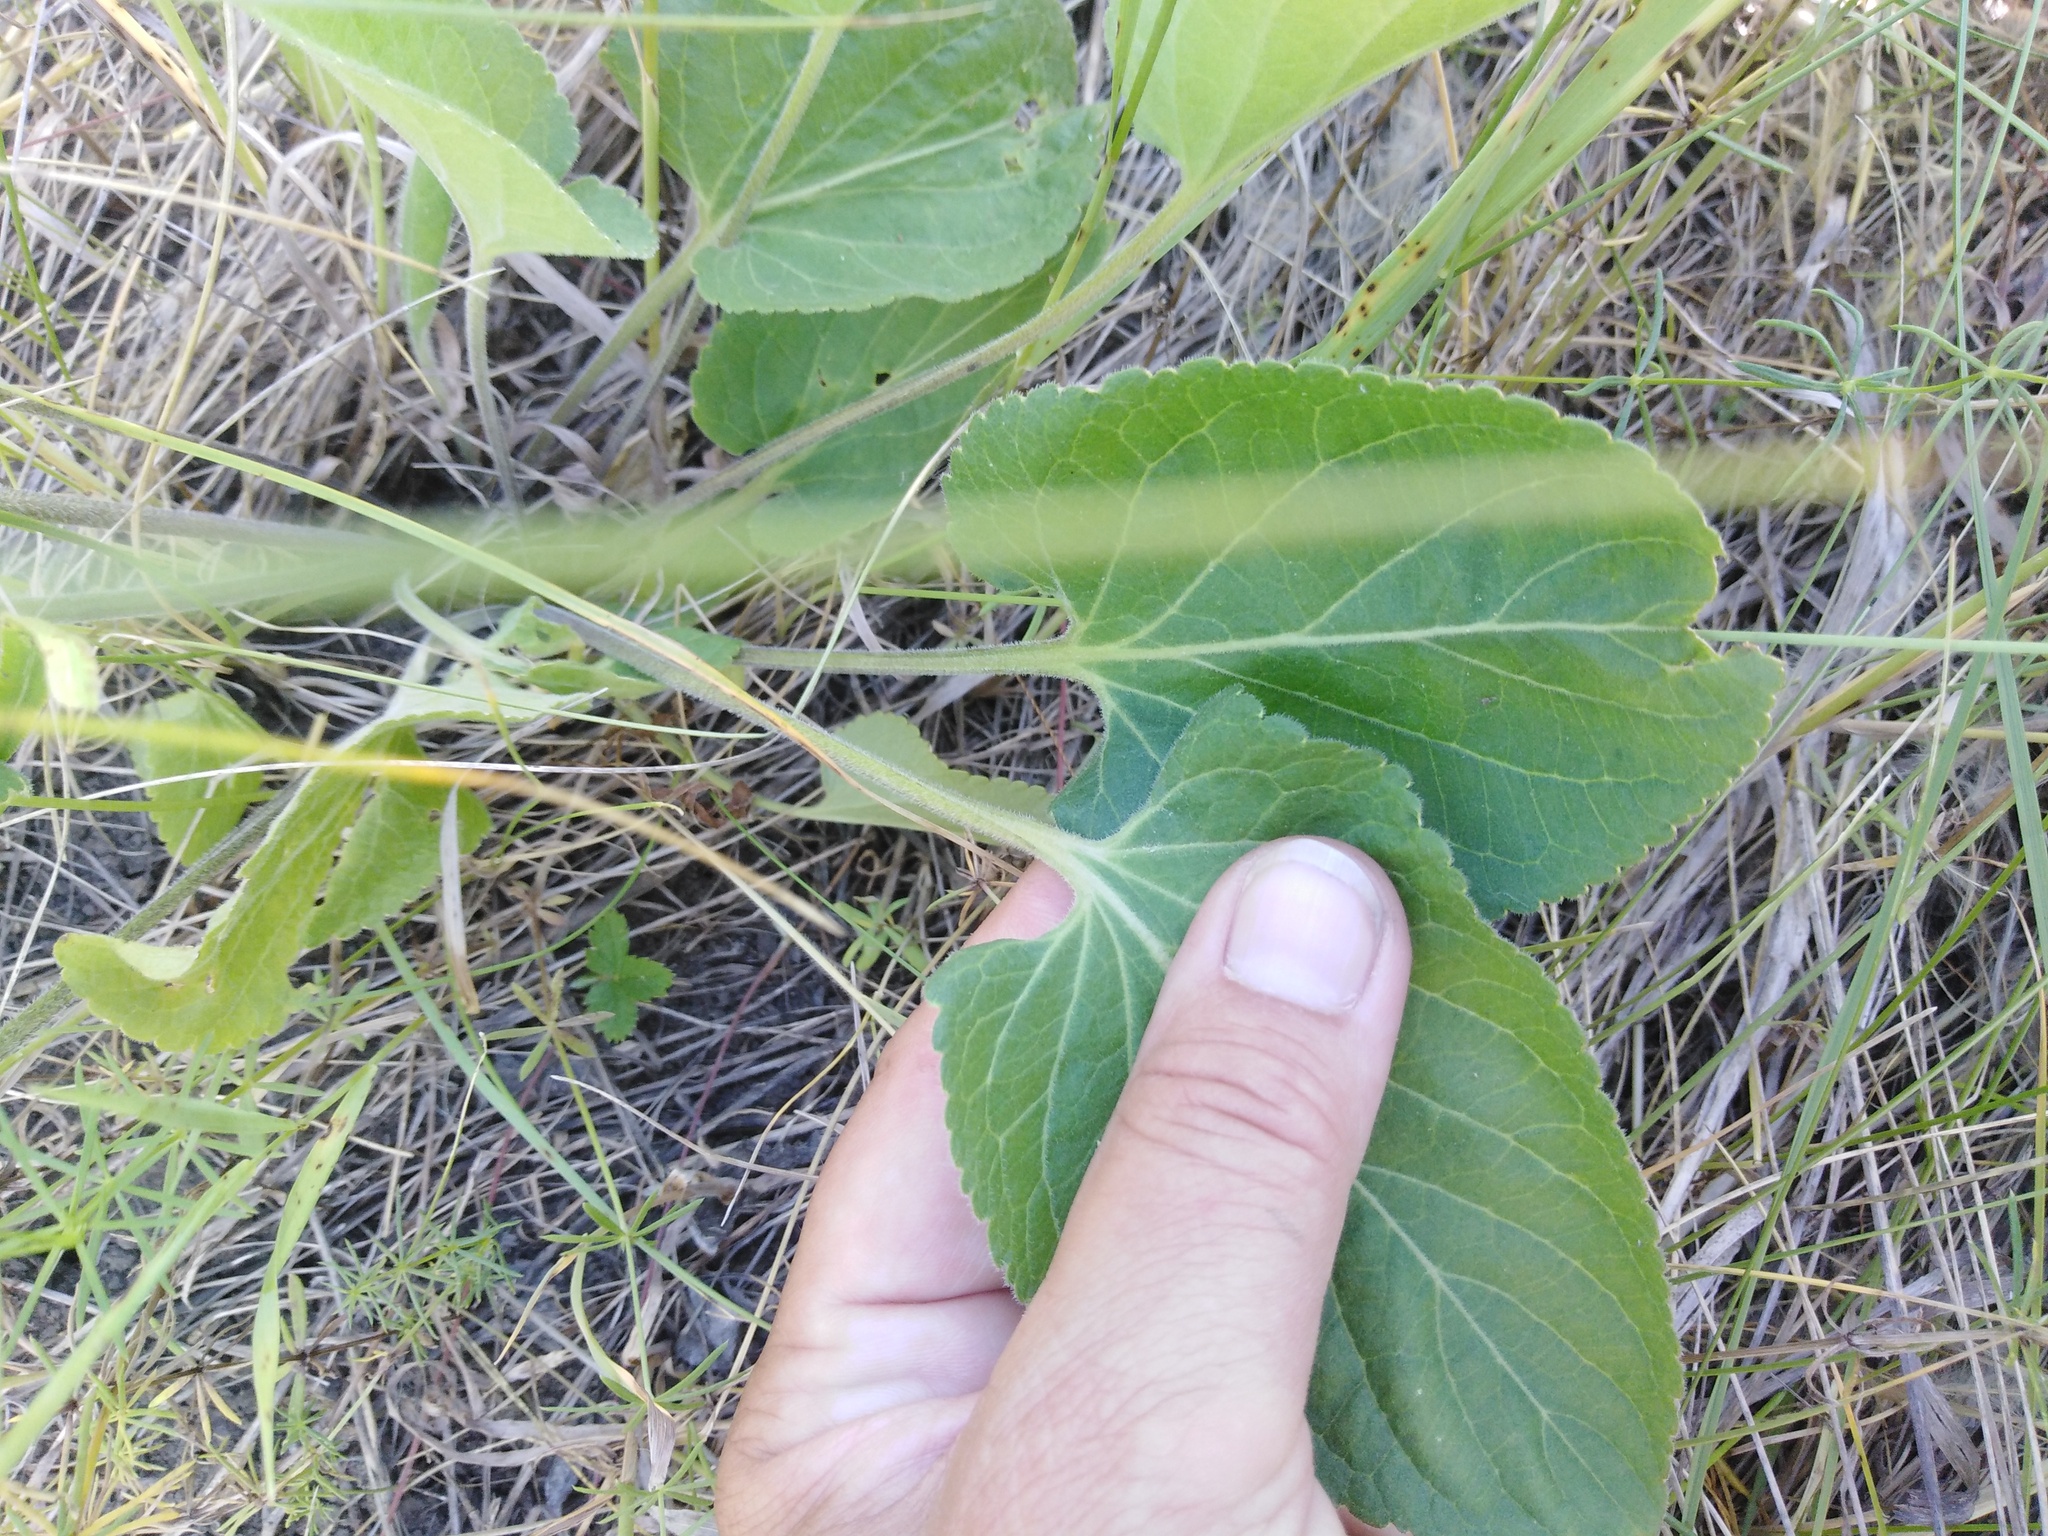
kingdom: Plantae
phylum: Tracheophyta
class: Magnoliopsida
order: Malpighiales
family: Violaceae
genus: Viola
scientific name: Viola ambigua
